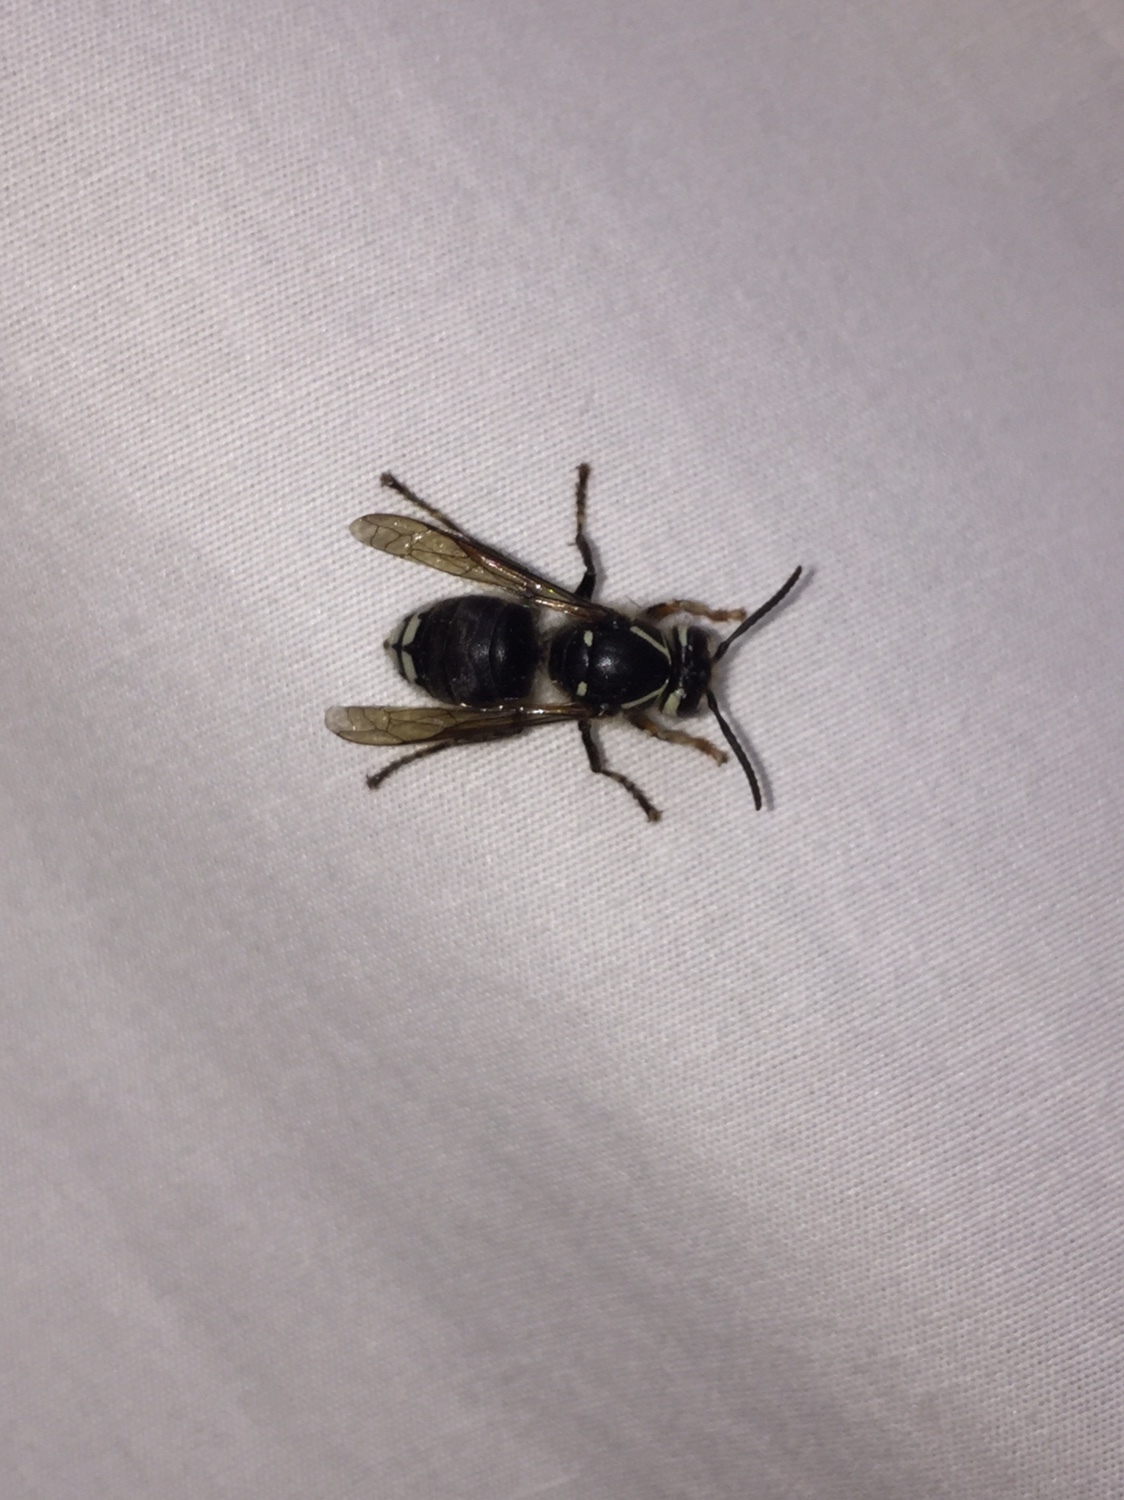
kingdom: Animalia
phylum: Arthropoda
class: Insecta
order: Hymenoptera
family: Vespidae
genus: Dolichovespula
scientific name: Dolichovespula maculata
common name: Bald-faced hornet
